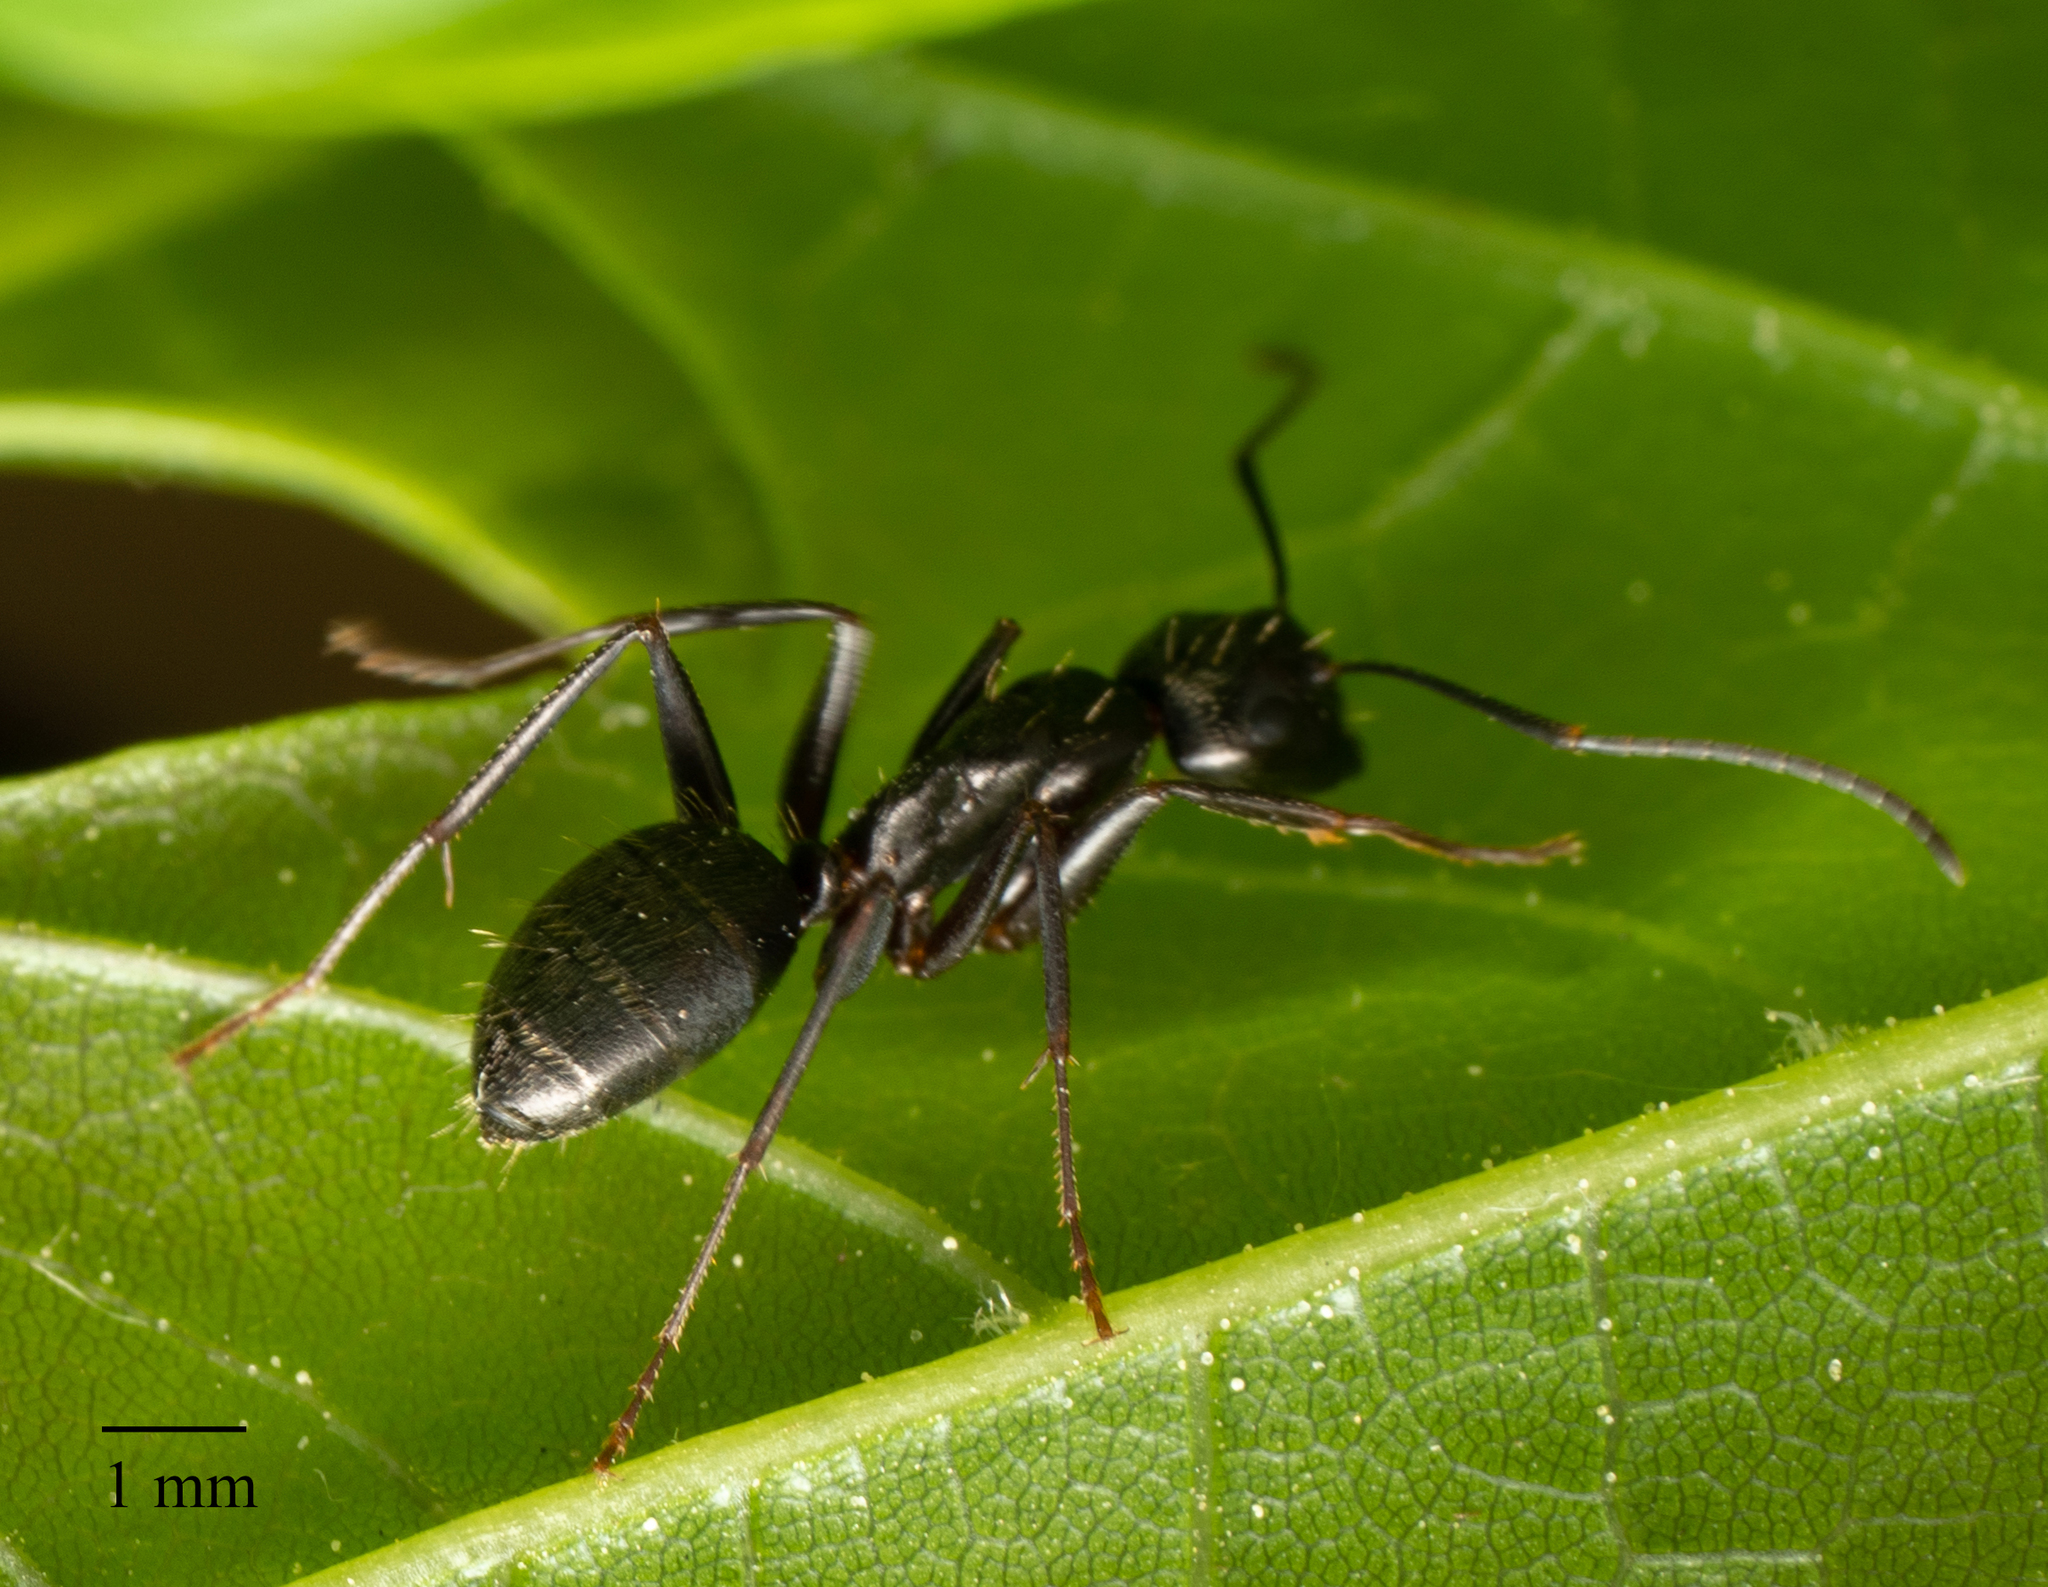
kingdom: Animalia
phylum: Arthropoda
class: Insecta
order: Hymenoptera
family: Formicidae
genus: Camponotus
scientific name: Camponotus pennsylvanicus
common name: Black carpenter ant
